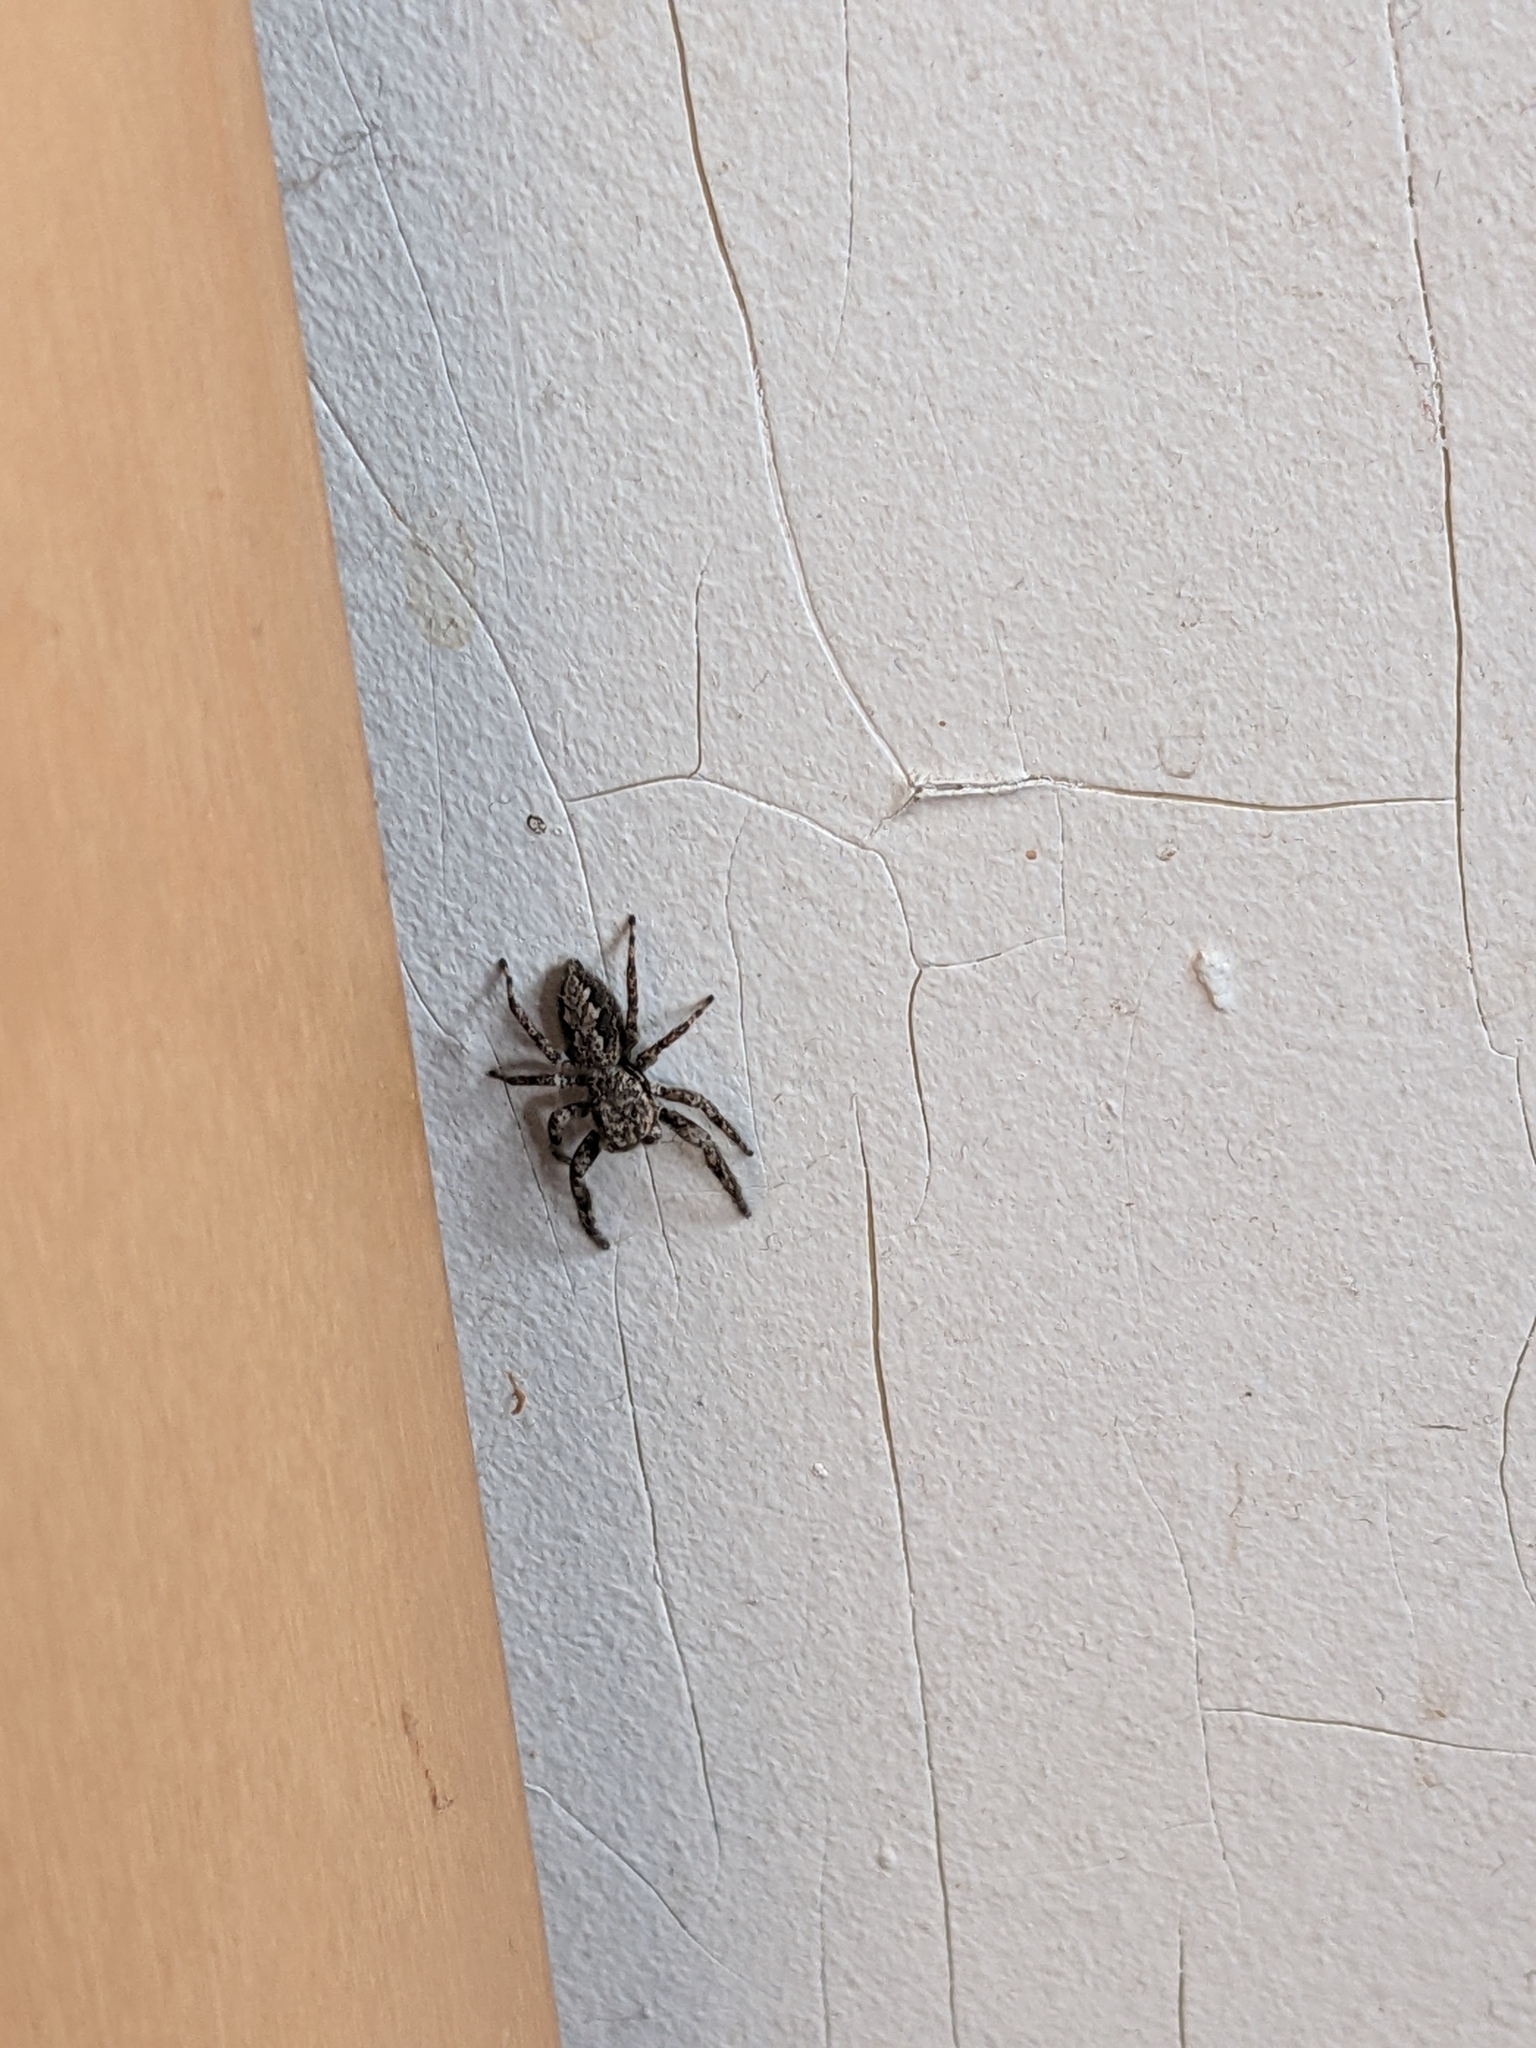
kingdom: Animalia
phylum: Arthropoda
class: Arachnida
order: Araneae
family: Salticidae
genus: Platycryptus
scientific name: Platycryptus undatus
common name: Tan jumping spider
